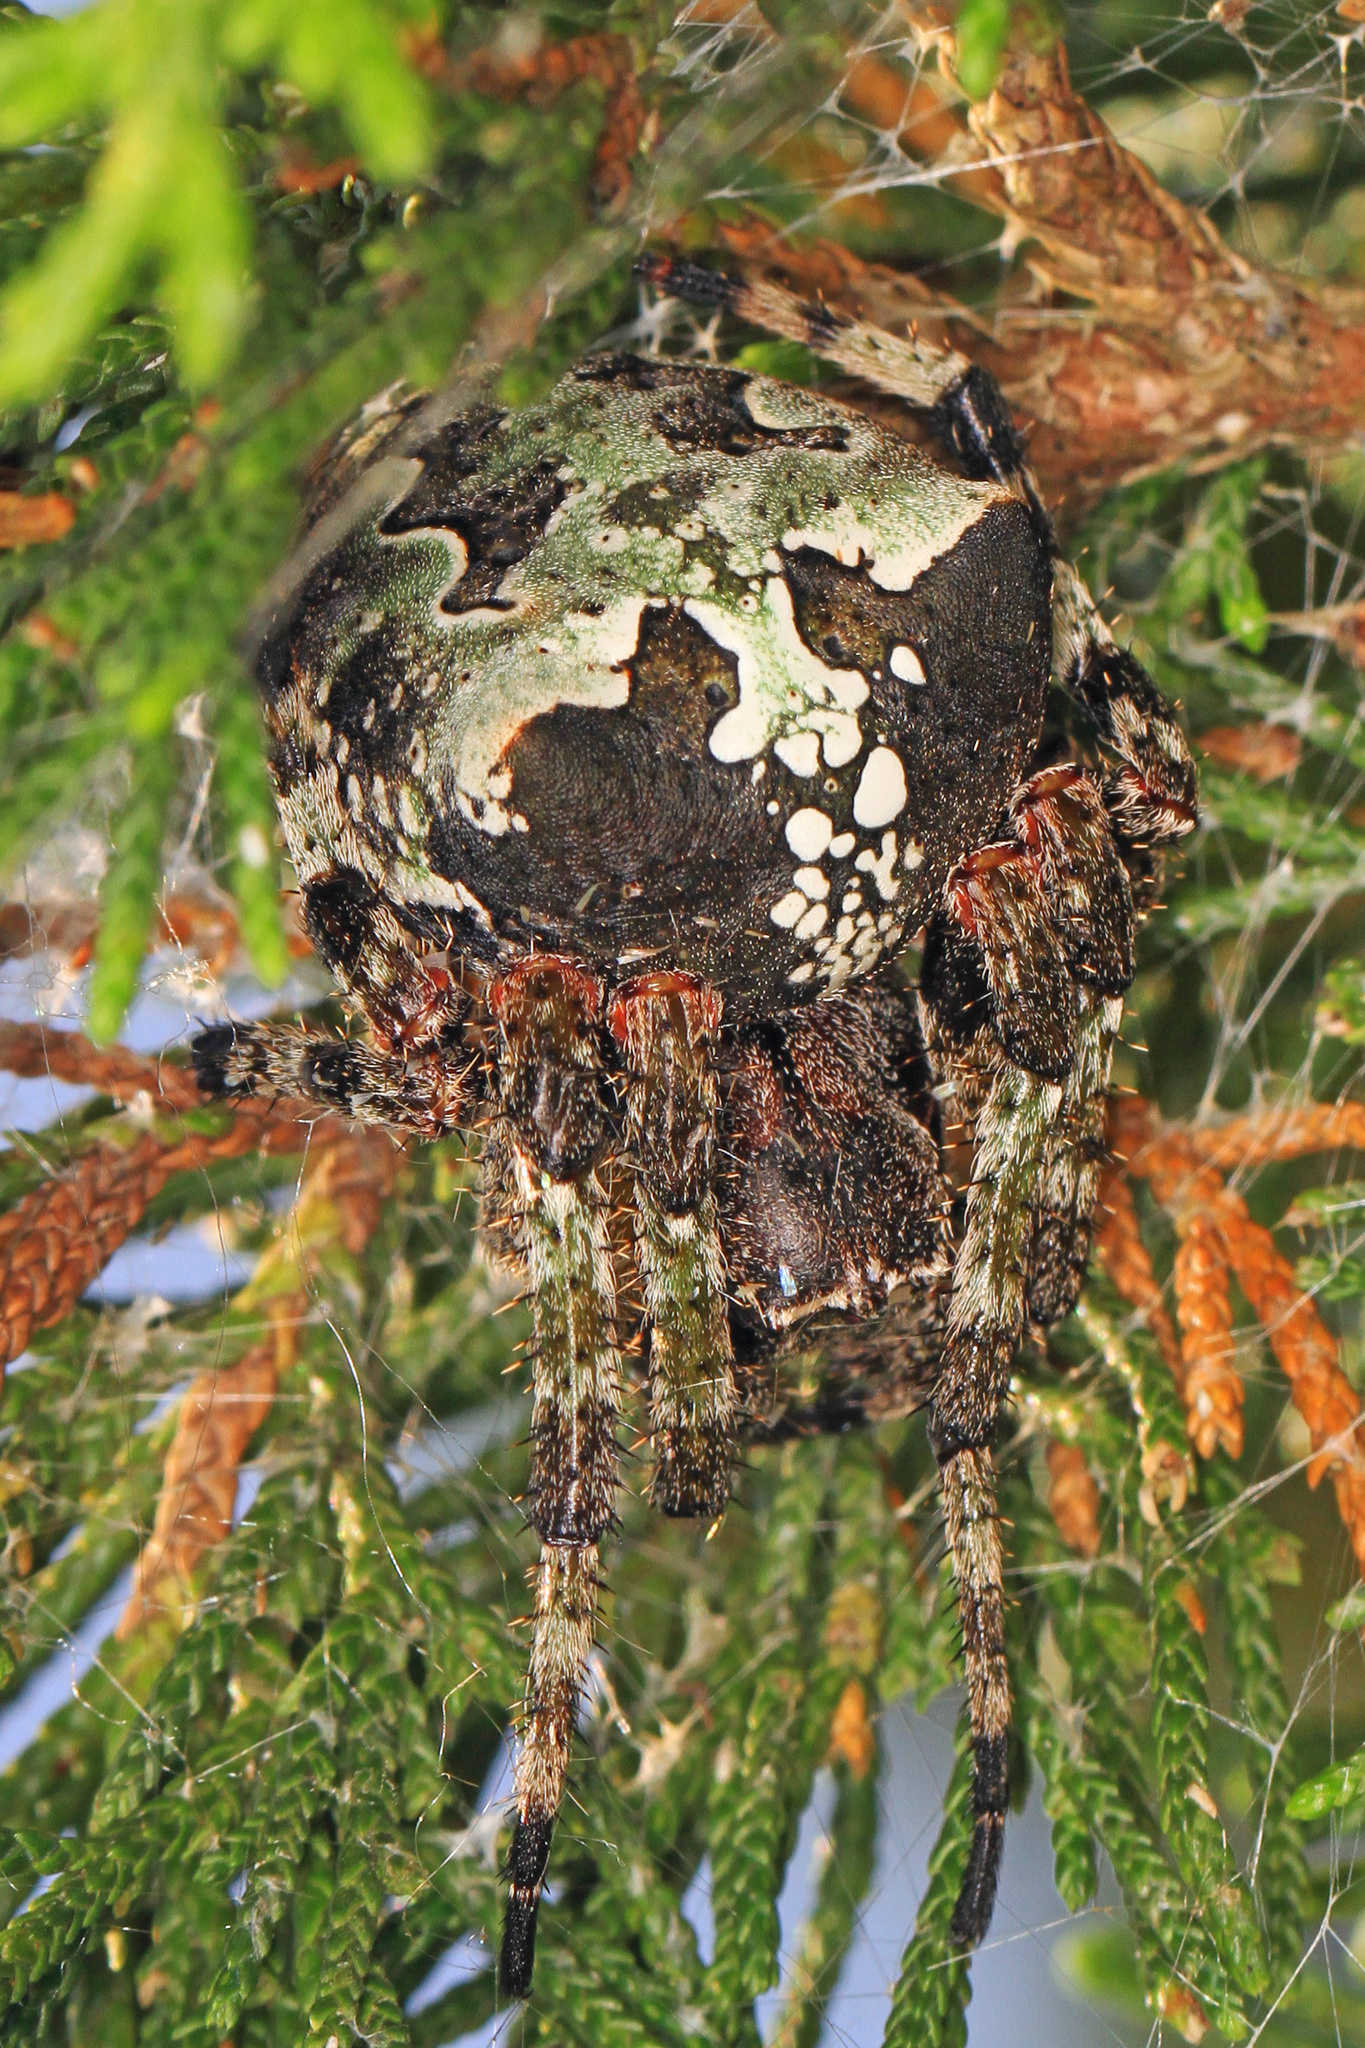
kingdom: Animalia
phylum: Arthropoda
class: Arachnida
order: Araneae
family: Araneidae
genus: Araneus
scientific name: Araneus bicentenarius
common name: Giant lichen orbweaver
